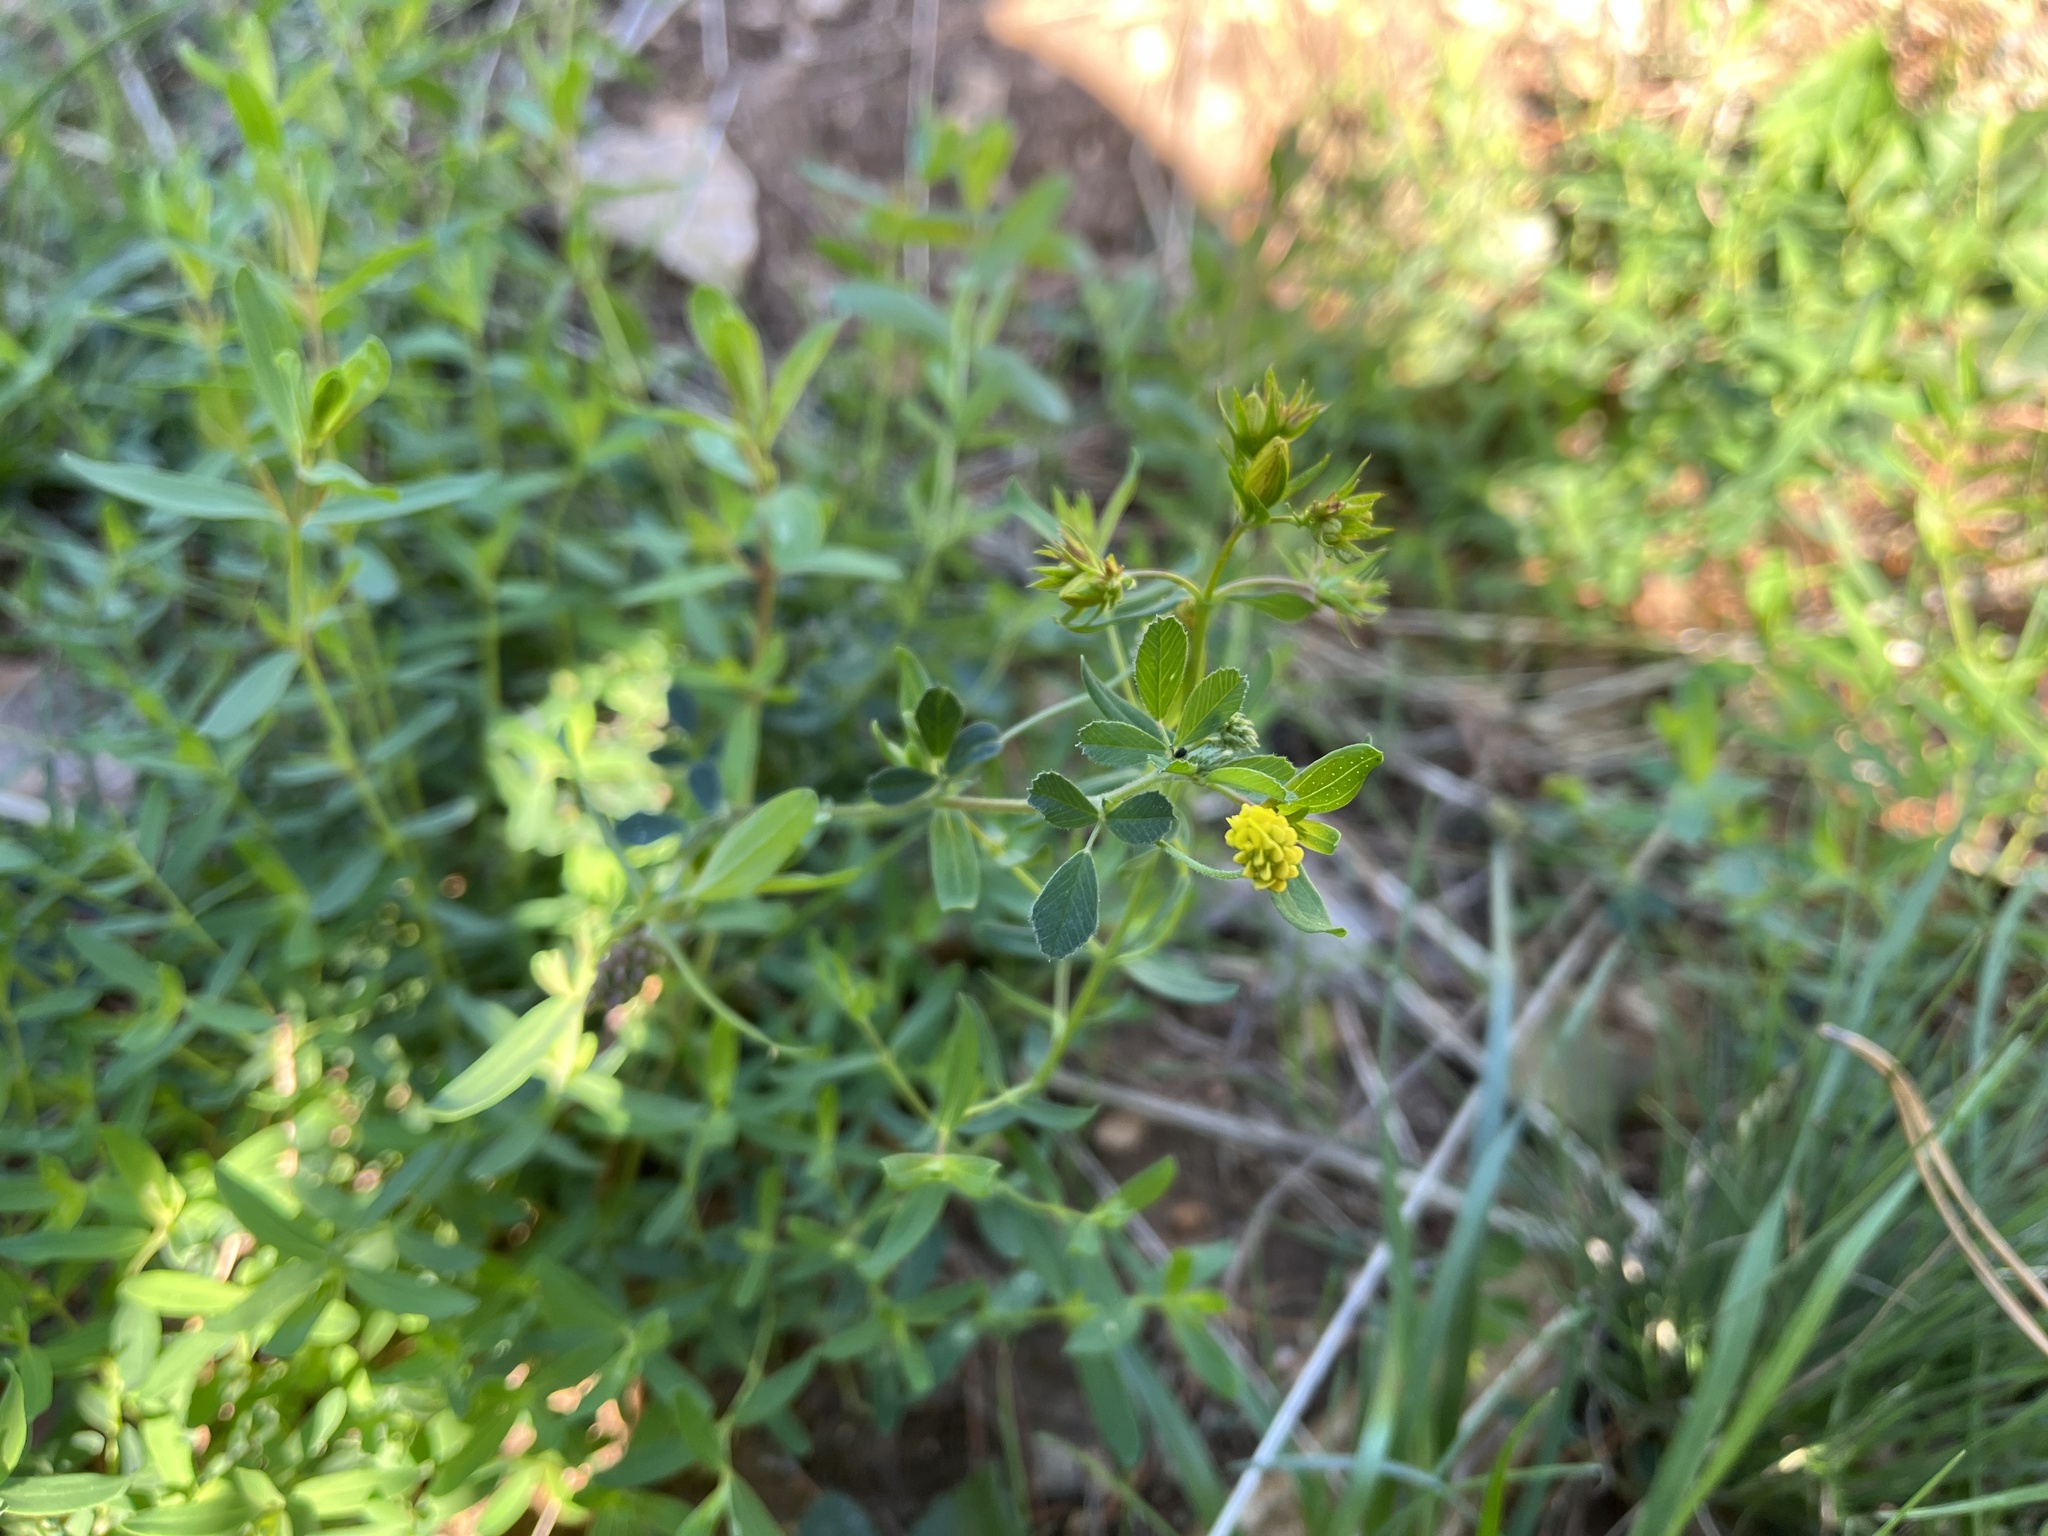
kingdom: Plantae
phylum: Tracheophyta
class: Magnoliopsida
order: Fabales
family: Fabaceae
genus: Medicago
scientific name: Medicago lupulina
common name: Black medick
